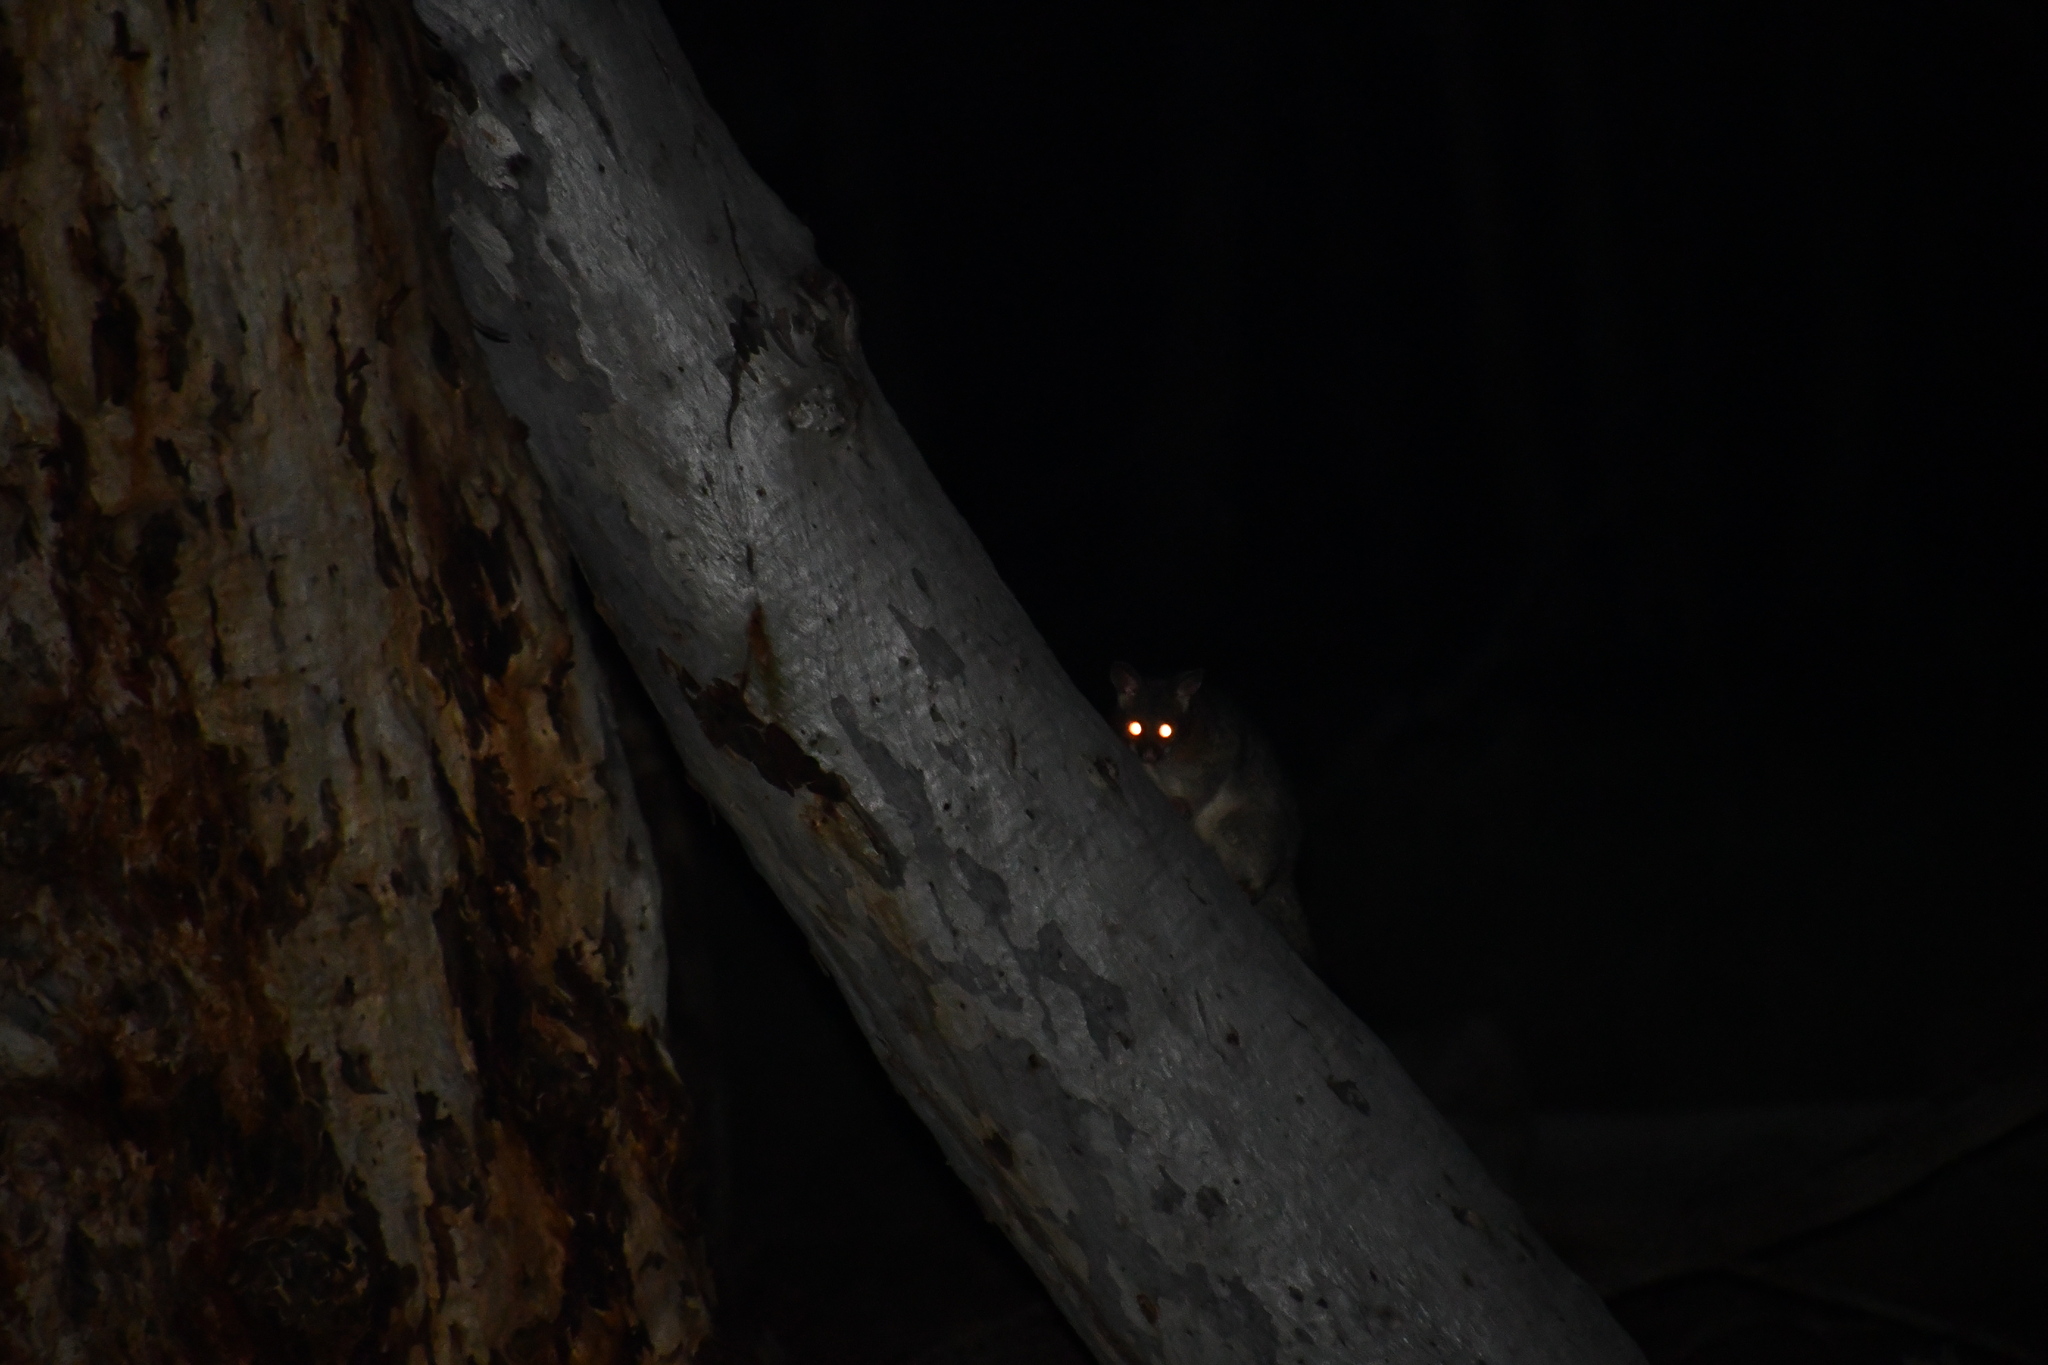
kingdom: Animalia
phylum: Chordata
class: Mammalia
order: Diprotodontia
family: Phalangeridae
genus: Trichosurus
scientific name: Trichosurus vulpecula
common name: Common brushtail
